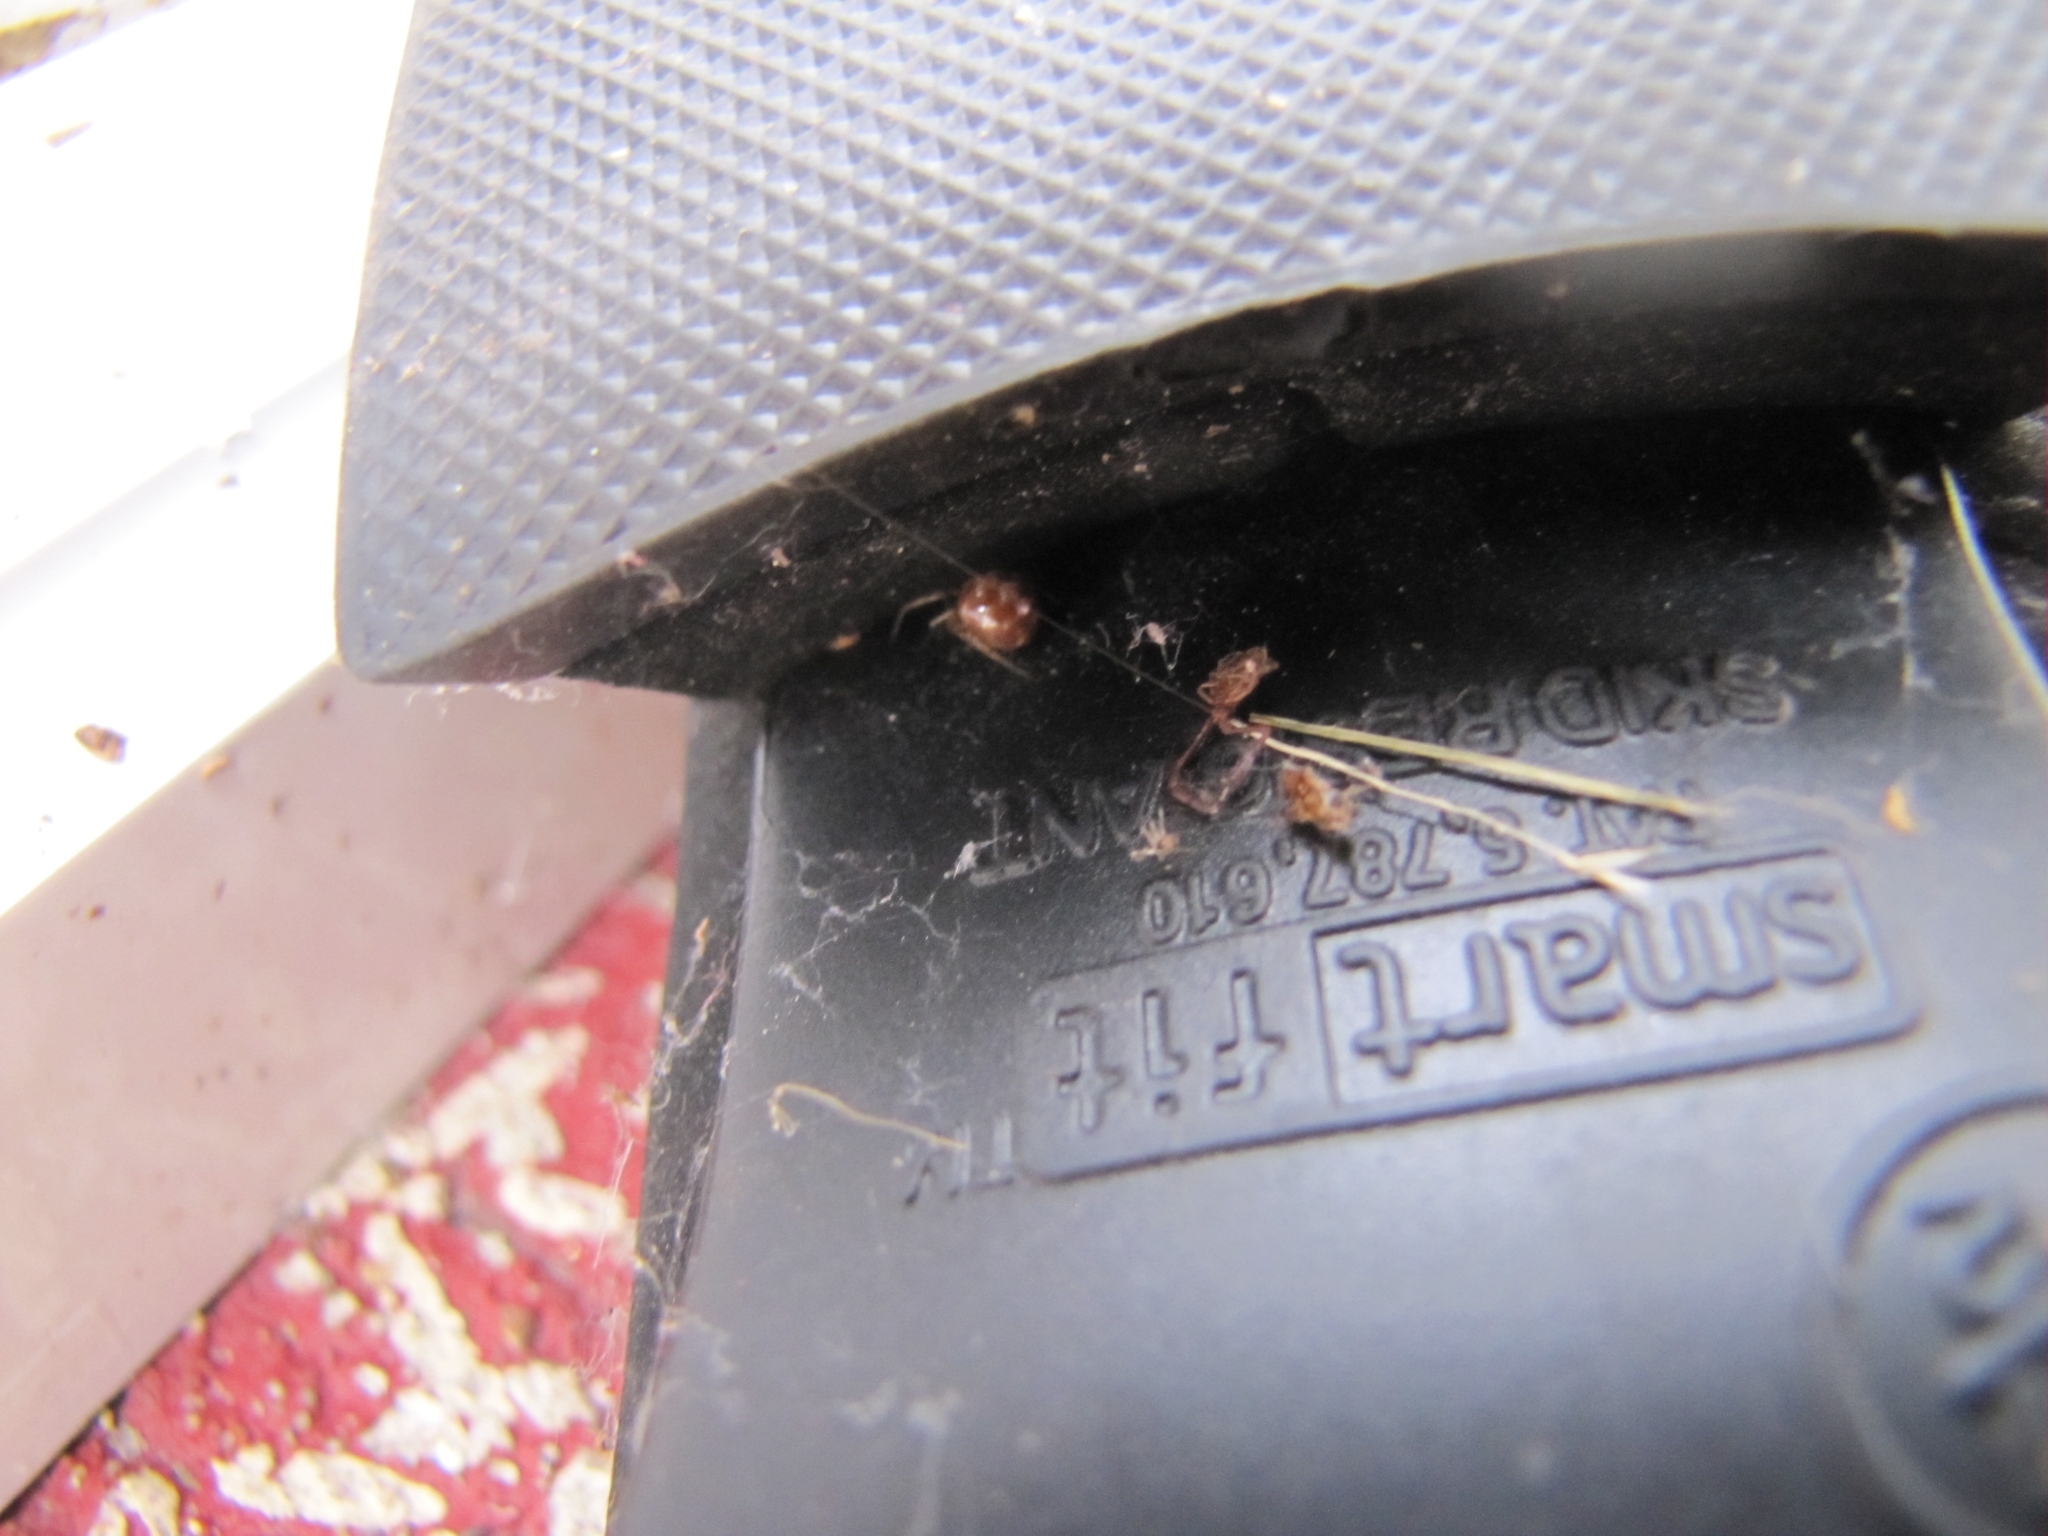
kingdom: Animalia
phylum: Arthropoda
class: Arachnida
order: Araneae
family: Theridiidae
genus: Steatoda
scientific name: Steatoda triangulosa
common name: Triangulate bud spider
